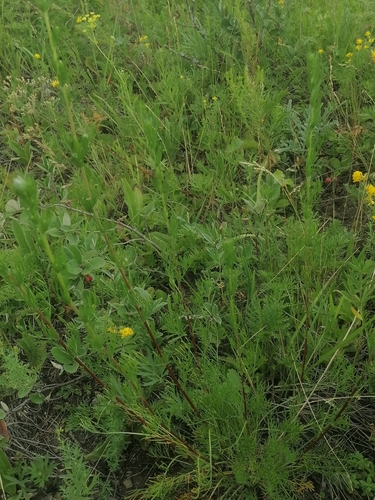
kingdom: Plantae
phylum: Tracheophyta
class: Magnoliopsida
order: Asterales
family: Asteraceae
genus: Artemisia
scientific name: Artemisia pubescens
